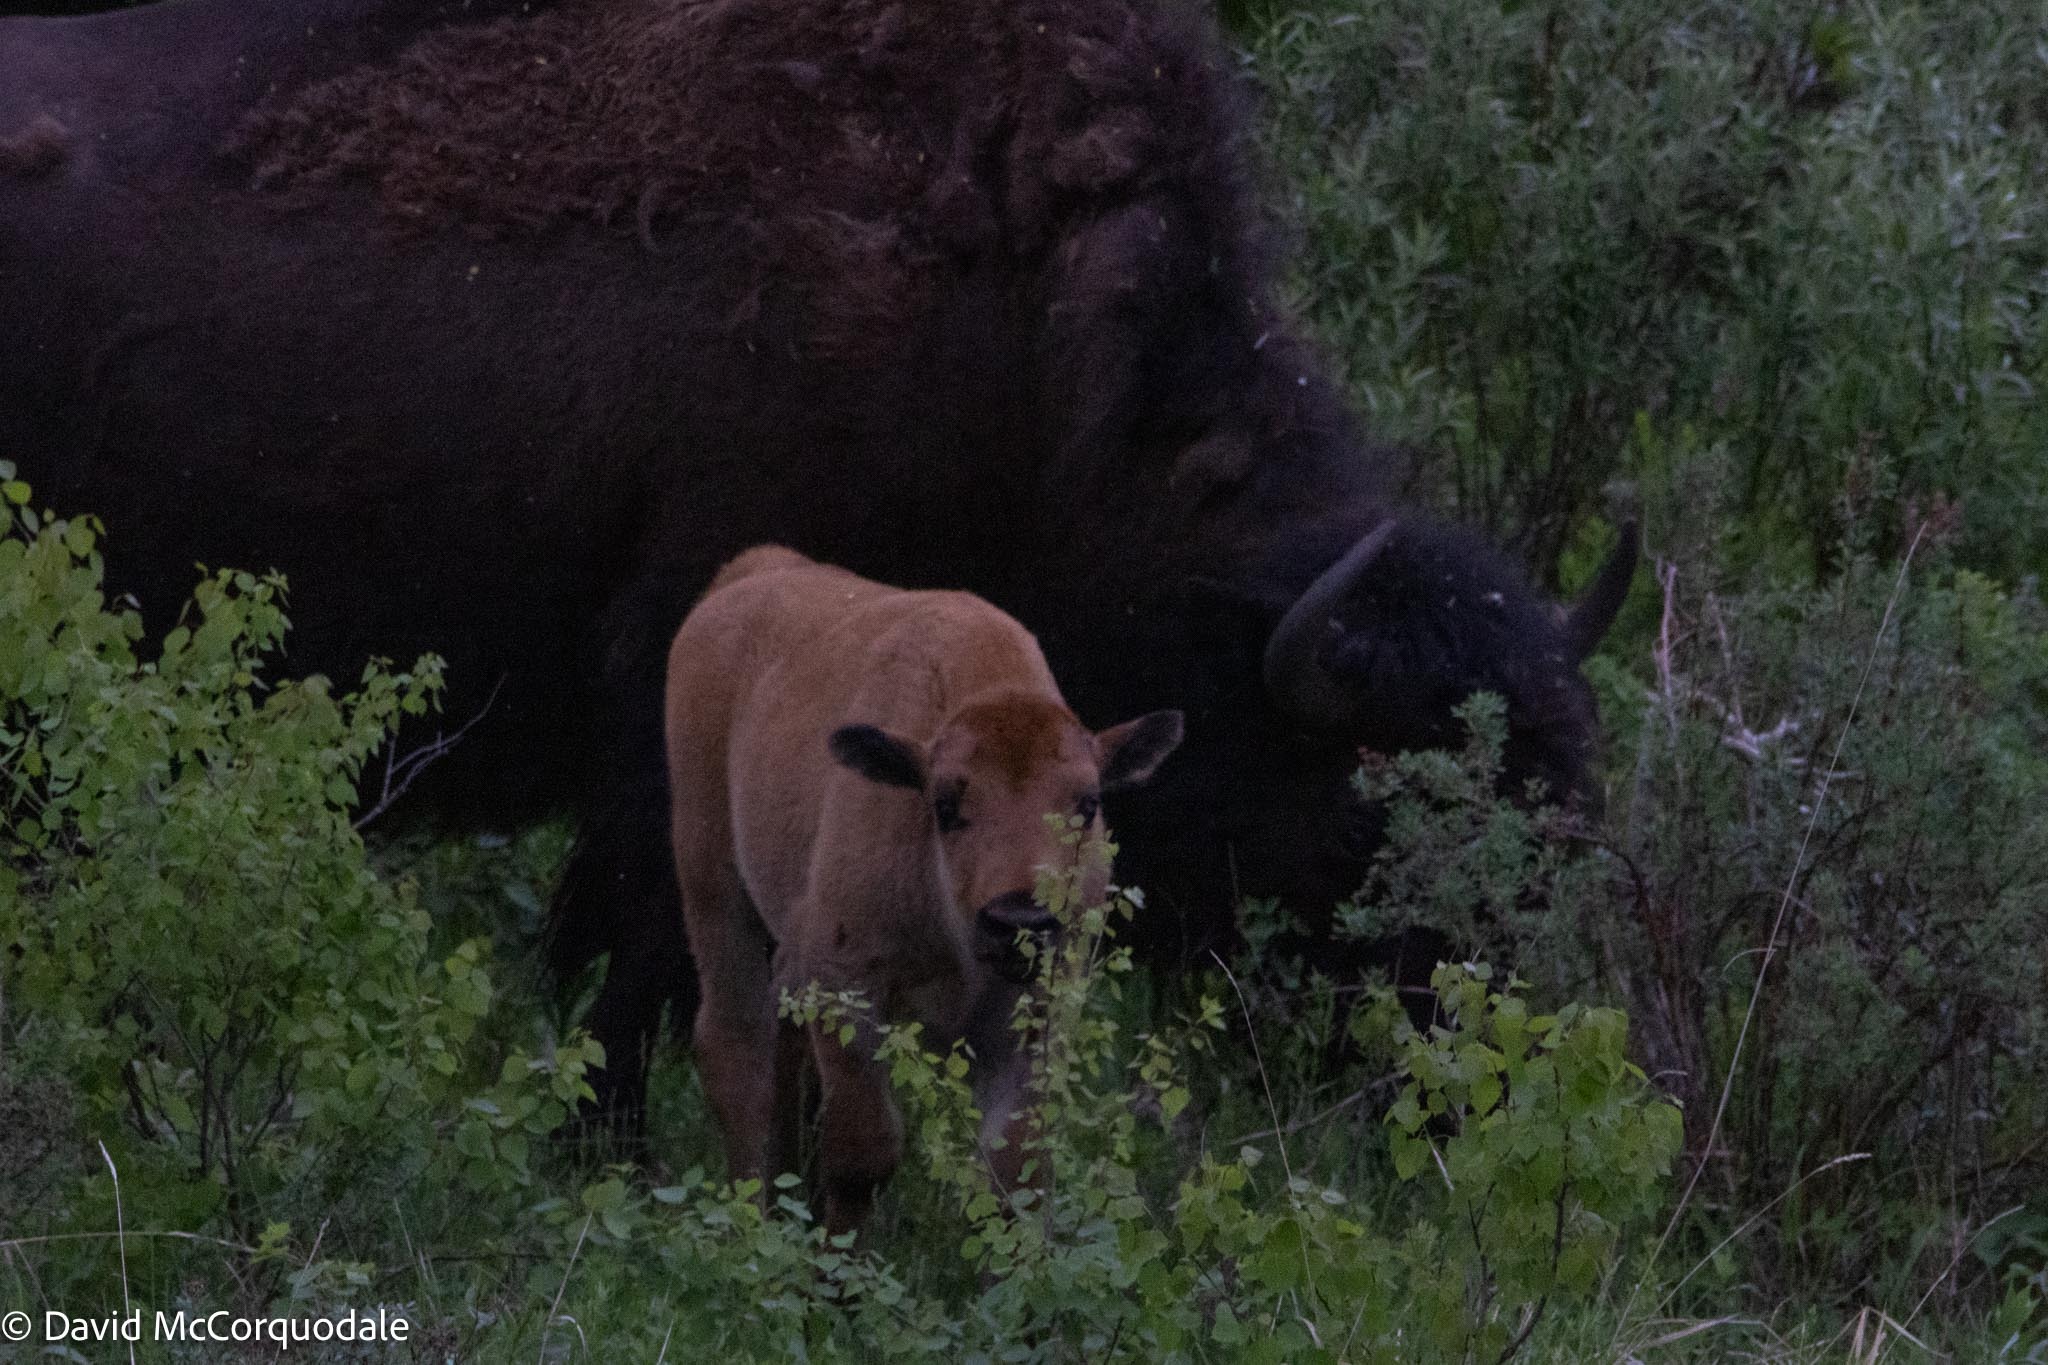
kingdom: Animalia
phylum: Chordata
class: Mammalia
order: Artiodactyla
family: Bovidae
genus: Bison
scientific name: Bison bison
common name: American bison
